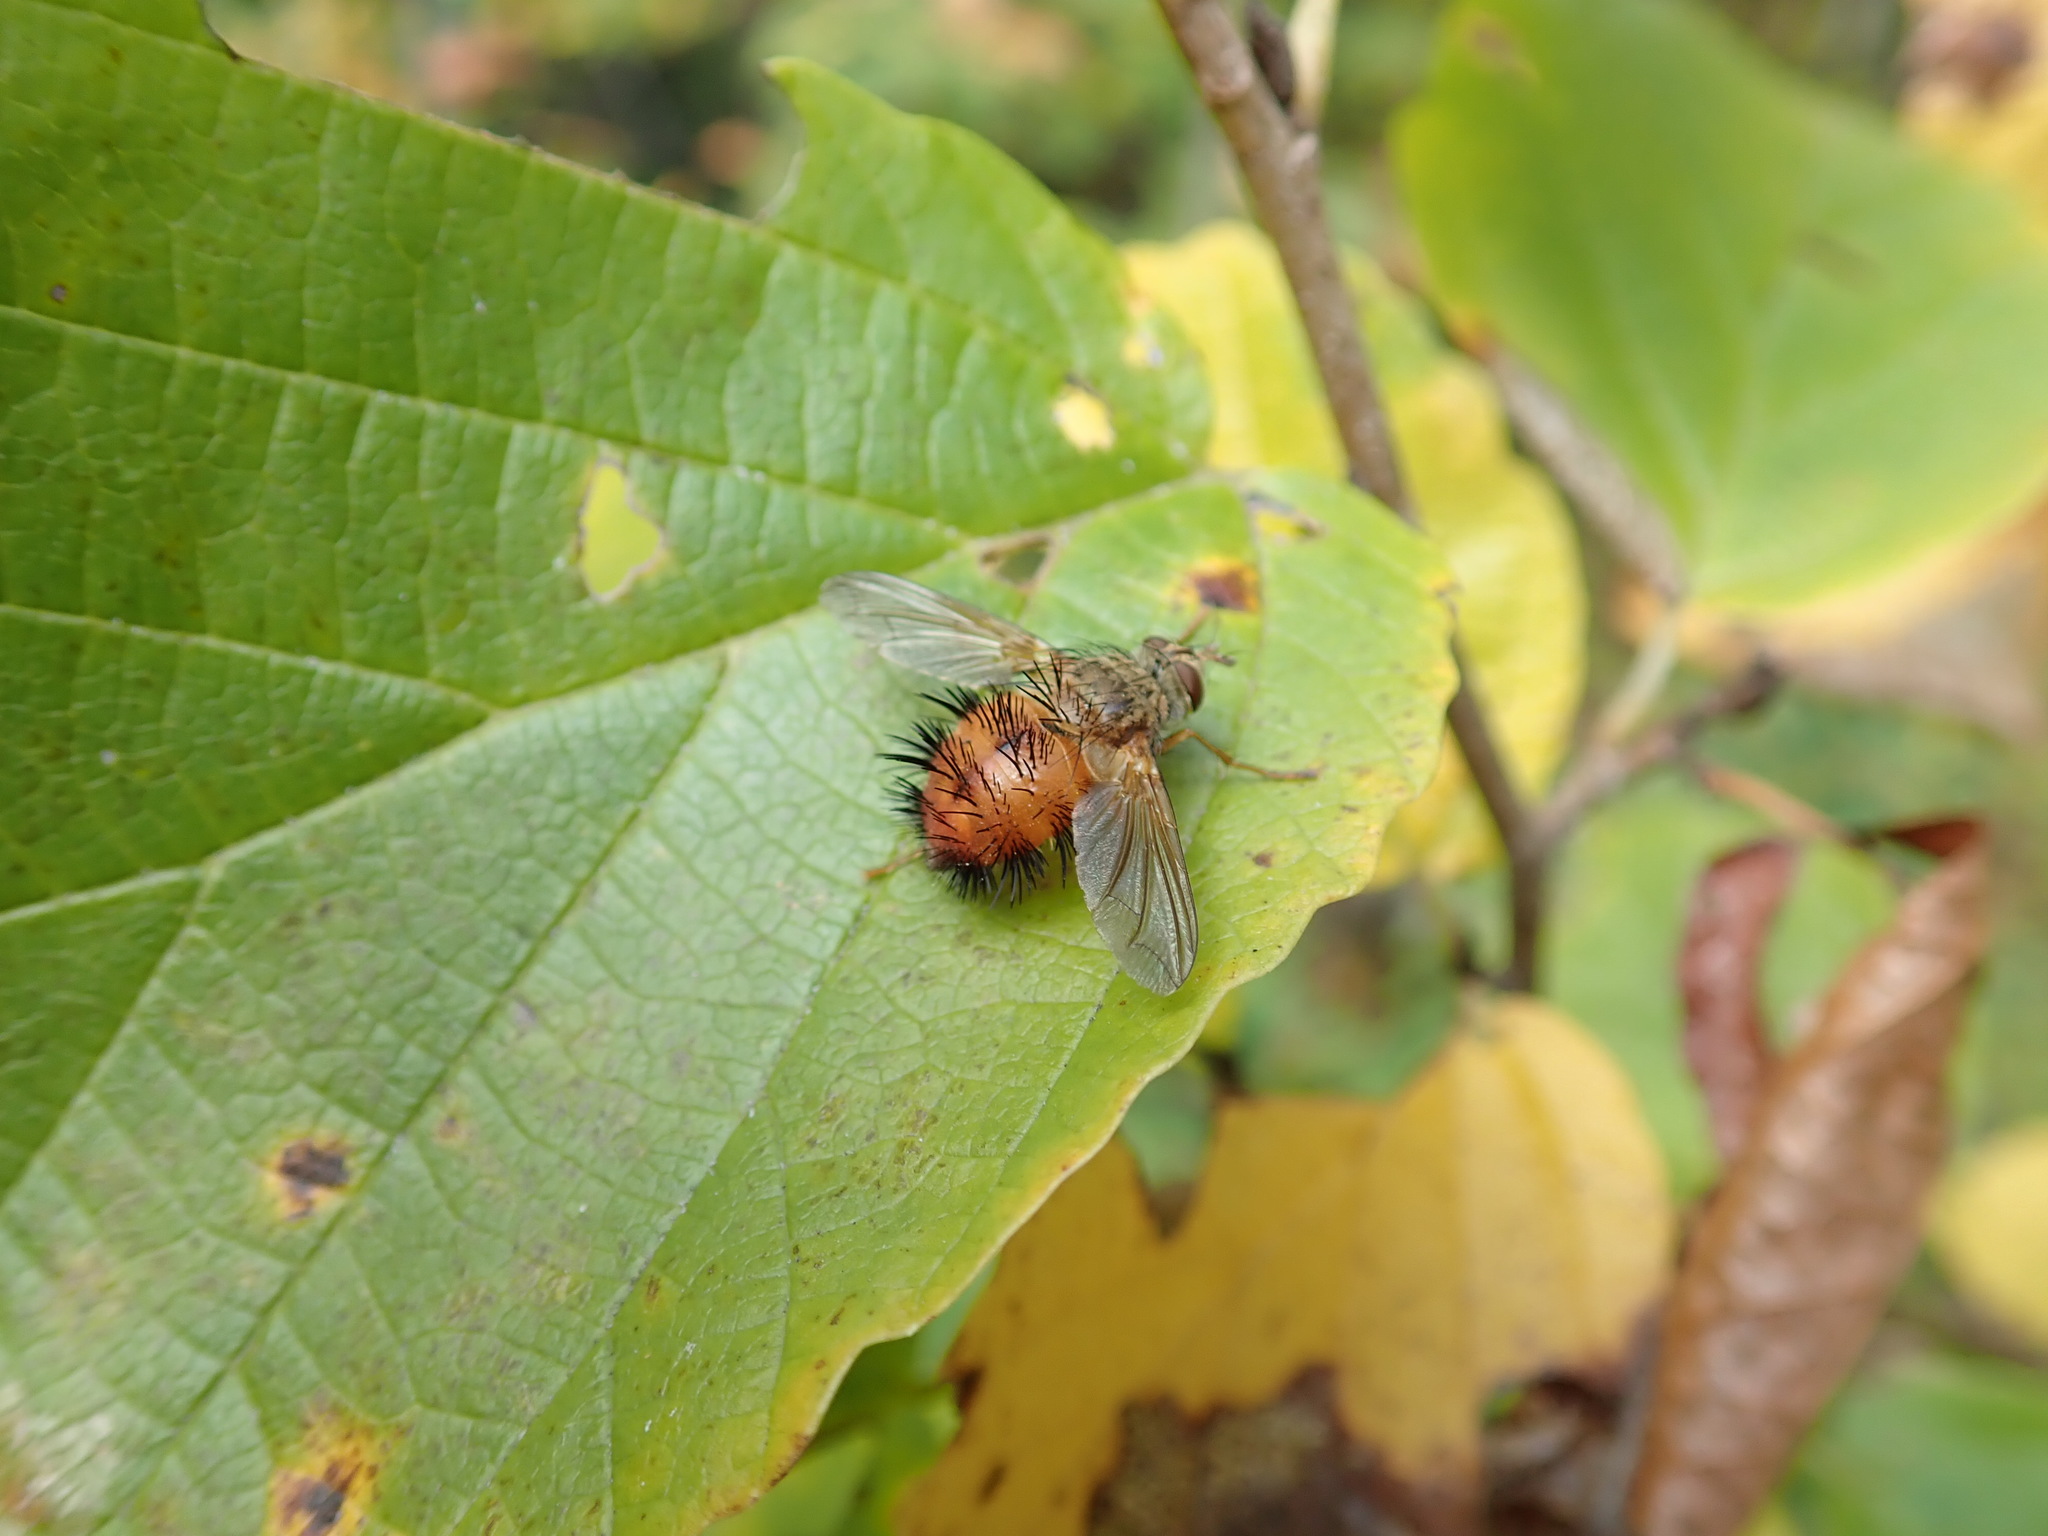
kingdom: Animalia
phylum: Arthropoda
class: Insecta
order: Diptera
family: Tachinidae
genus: Hystricia
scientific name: Hystricia abrupta
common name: Tomato bristle fly
